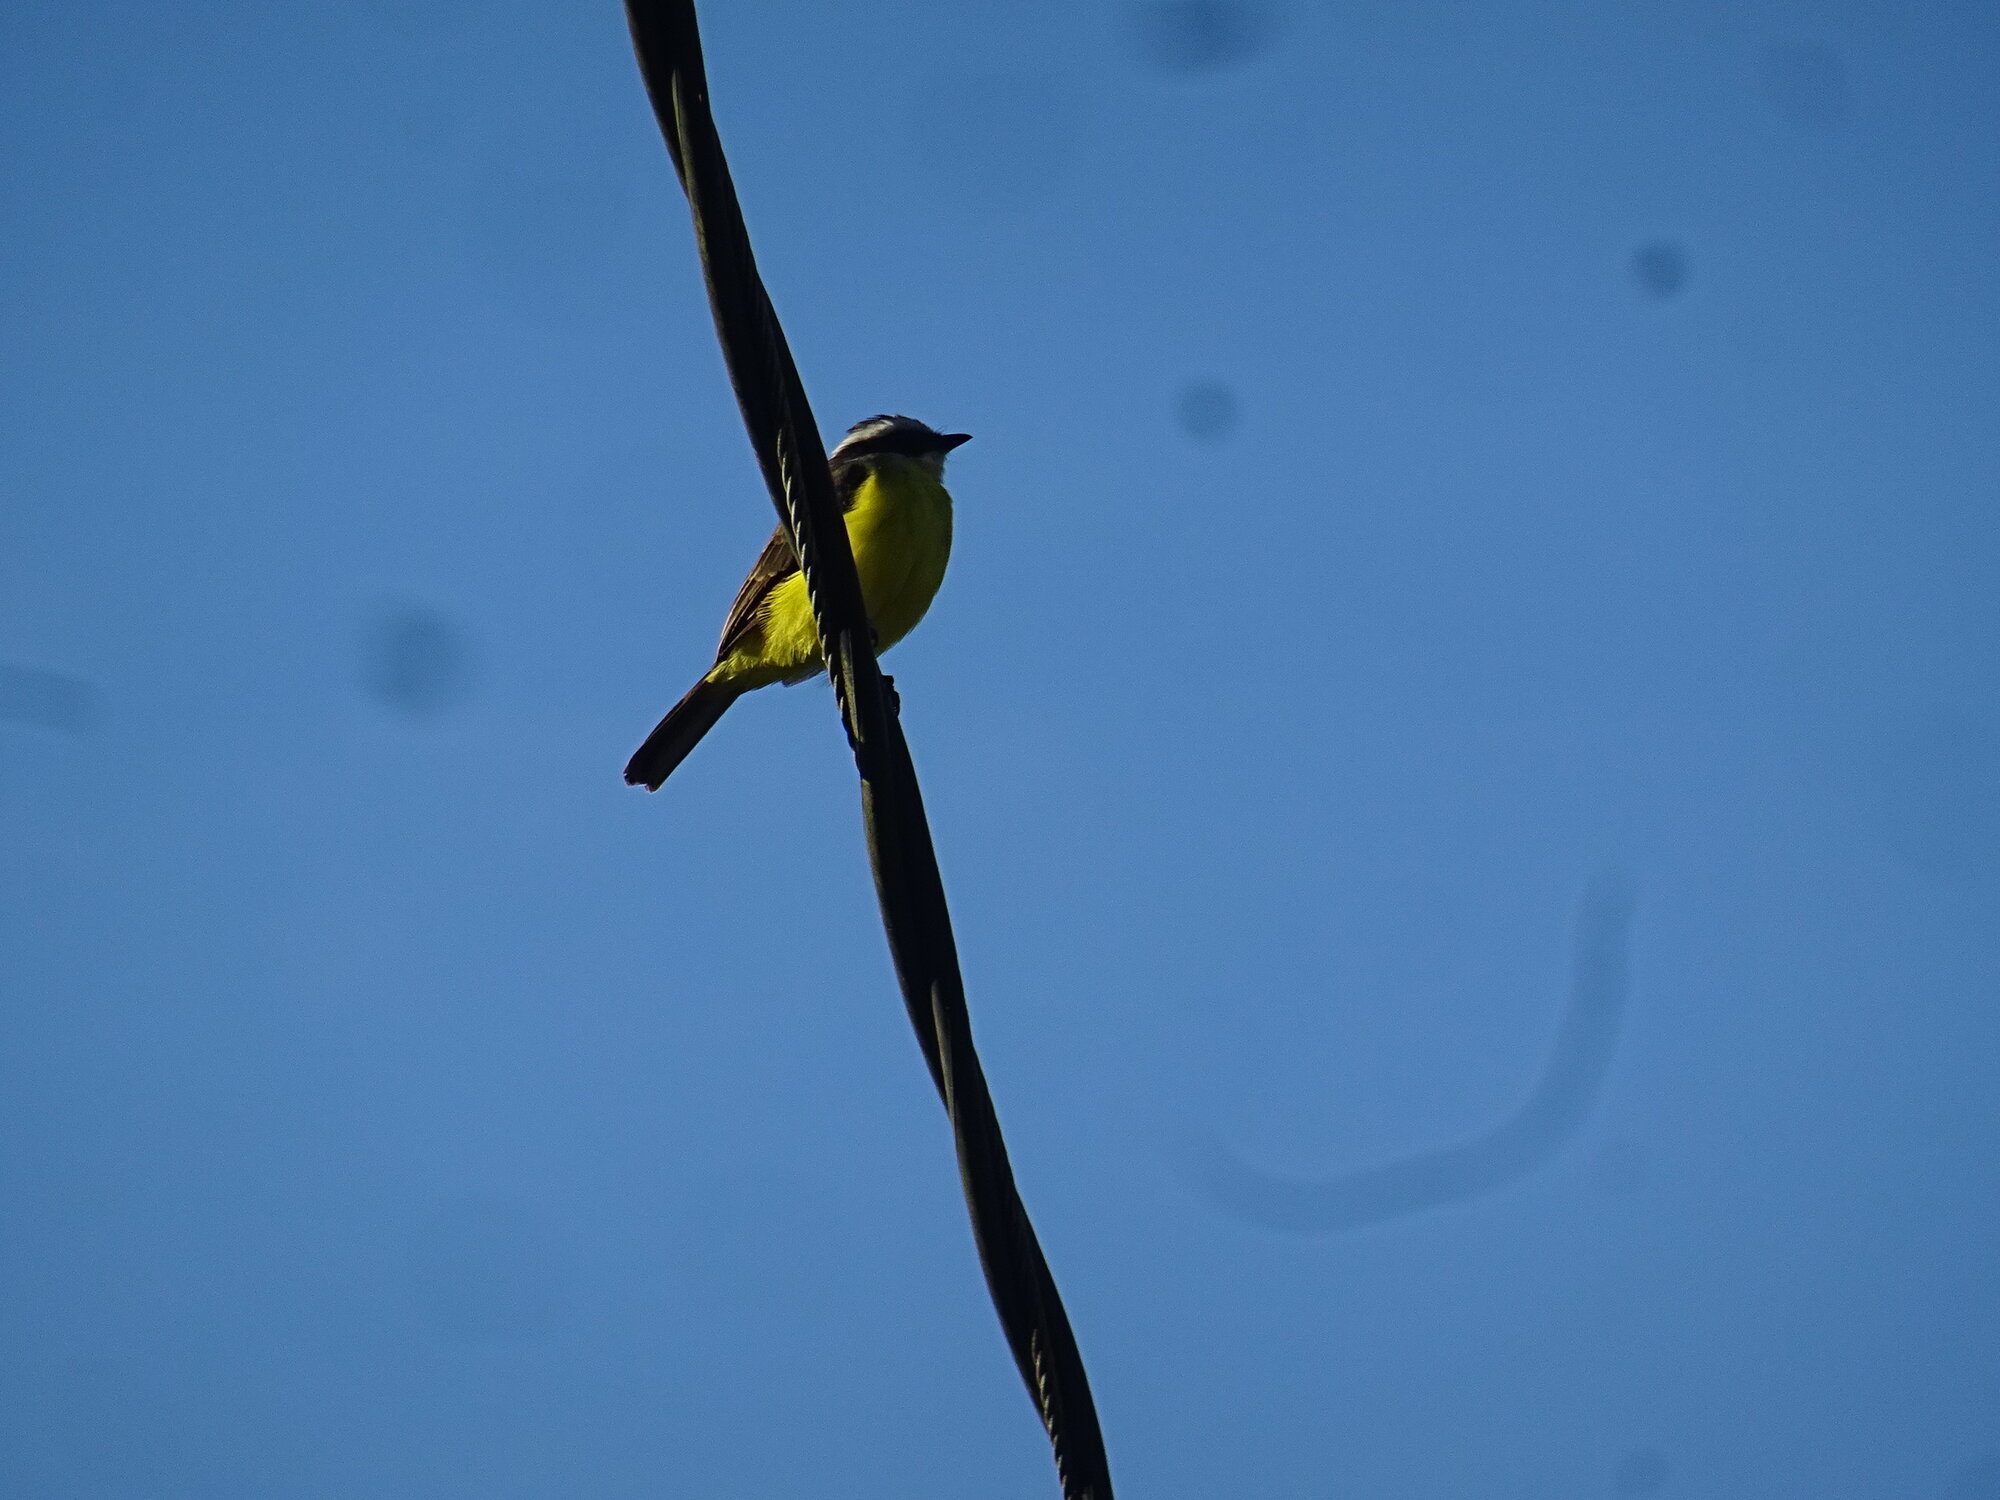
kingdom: Animalia
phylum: Chordata
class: Aves
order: Passeriformes
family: Tyrannidae
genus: Myiozetetes
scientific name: Myiozetetes cayanensis
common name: Rusty-margined flycatcher
